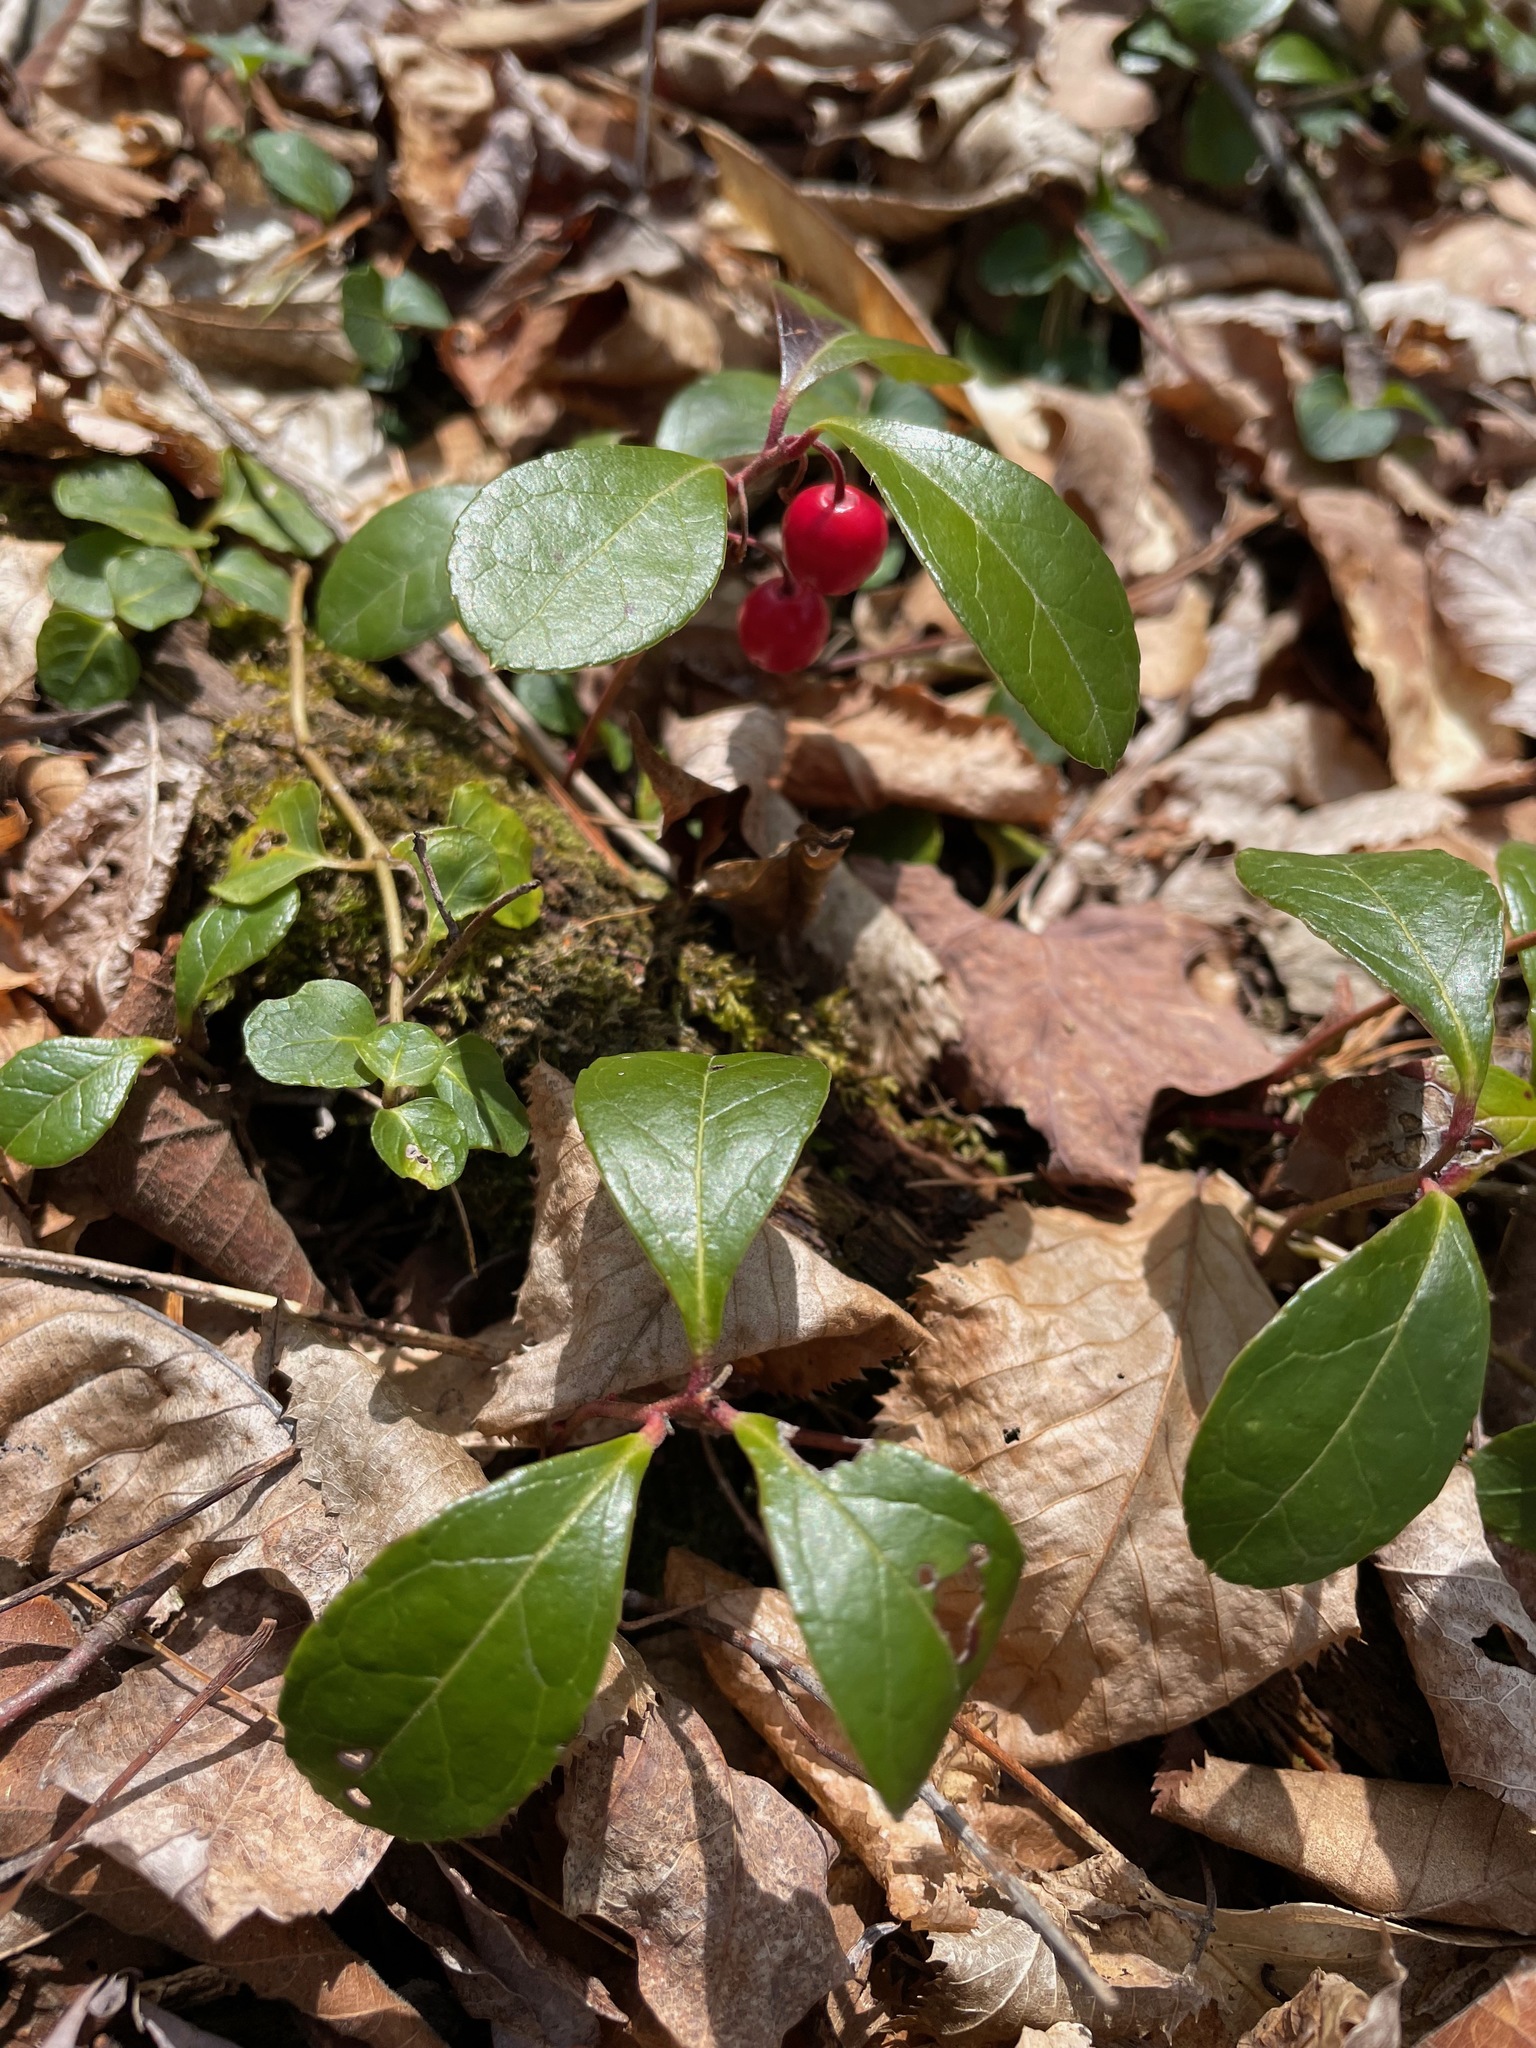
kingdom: Plantae
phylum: Tracheophyta
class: Magnoliopsida
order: Ericales
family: Ericaceae
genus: Gaultheria
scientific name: Gaultheria procumbens
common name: Checkerberry
